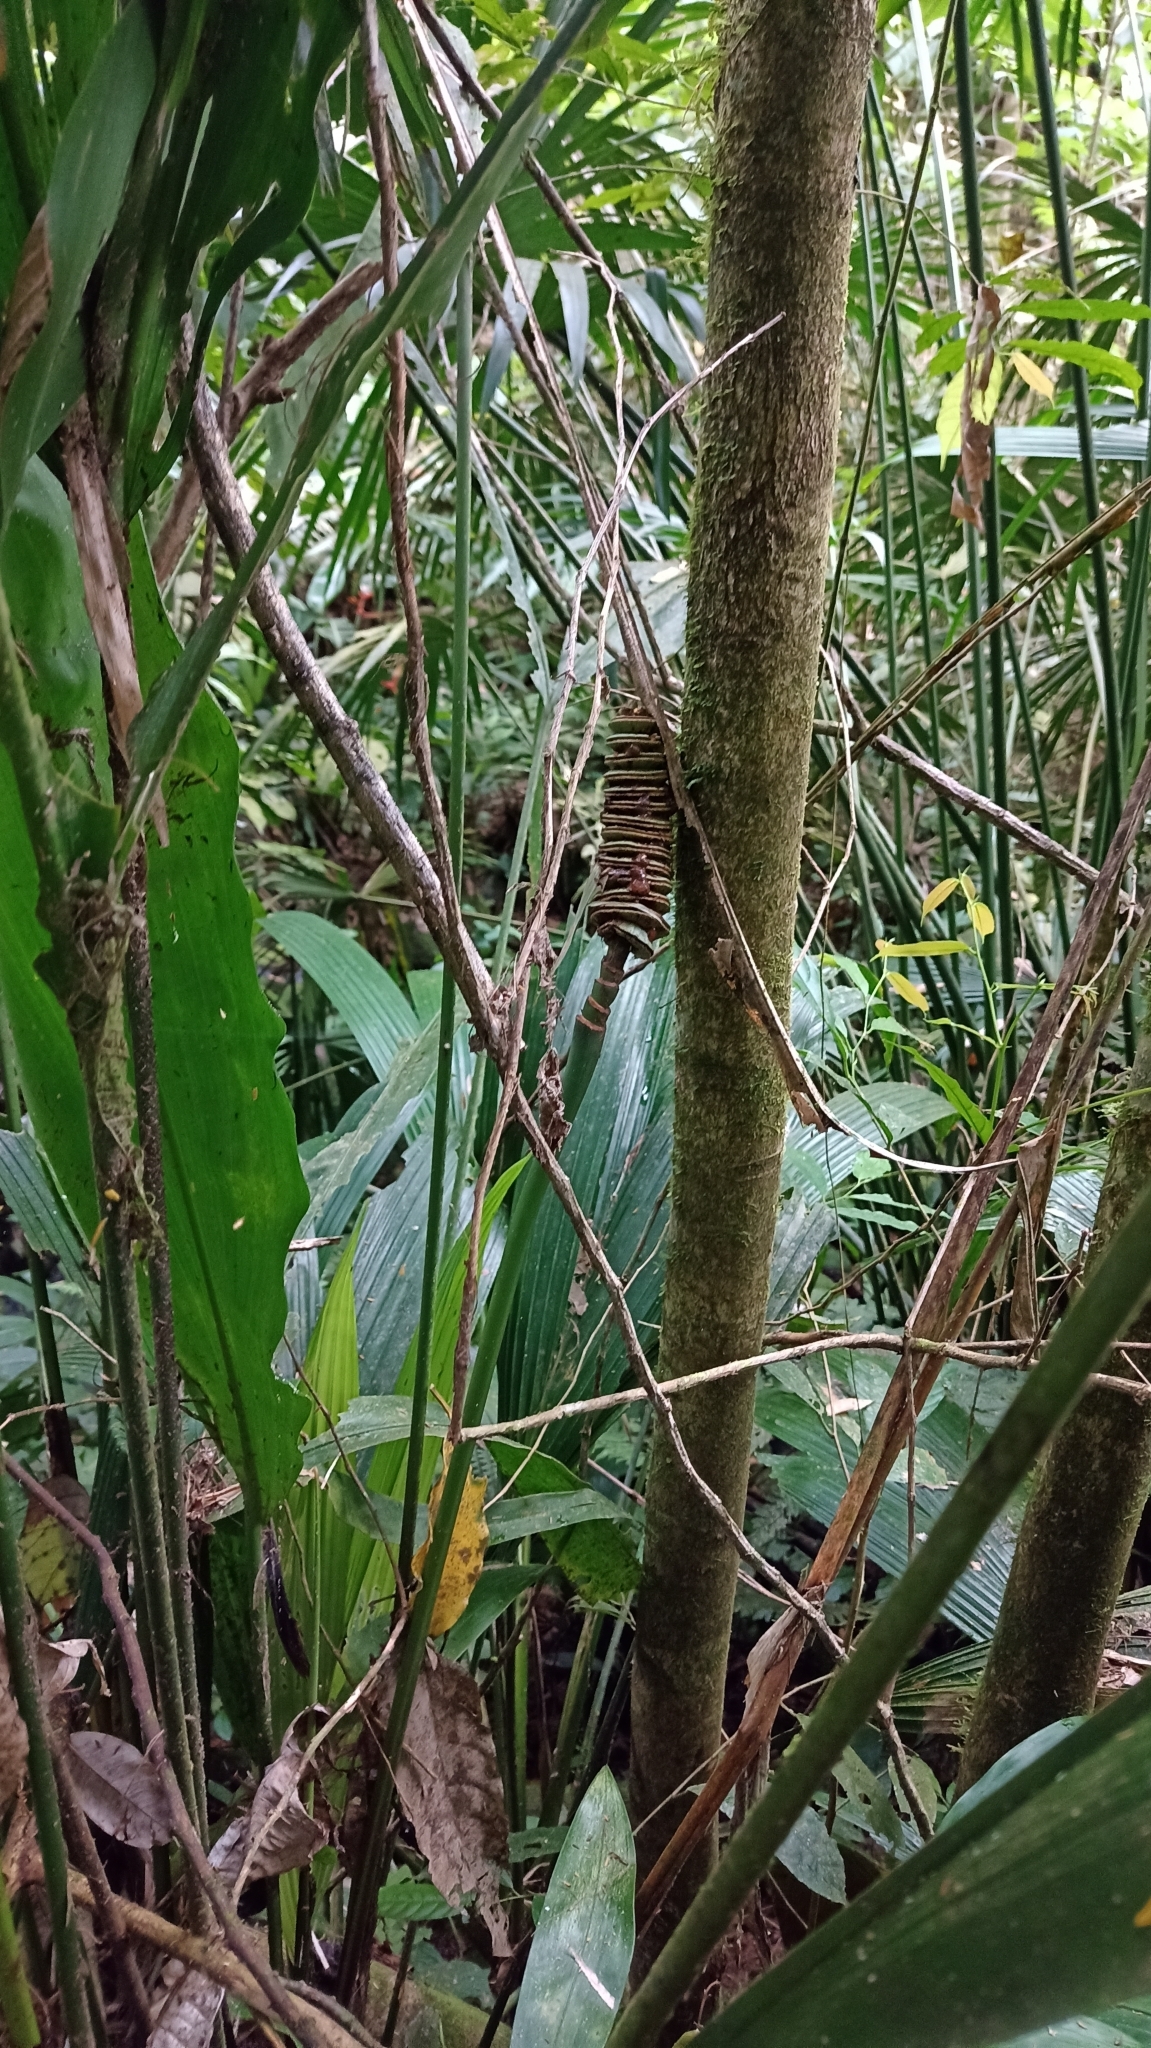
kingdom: Plantae
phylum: Tracheophyta
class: Liliopsida
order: Pandanales
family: Cyclanthaceae
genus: Cyclanthus
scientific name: Cyclanthus bipartitus
